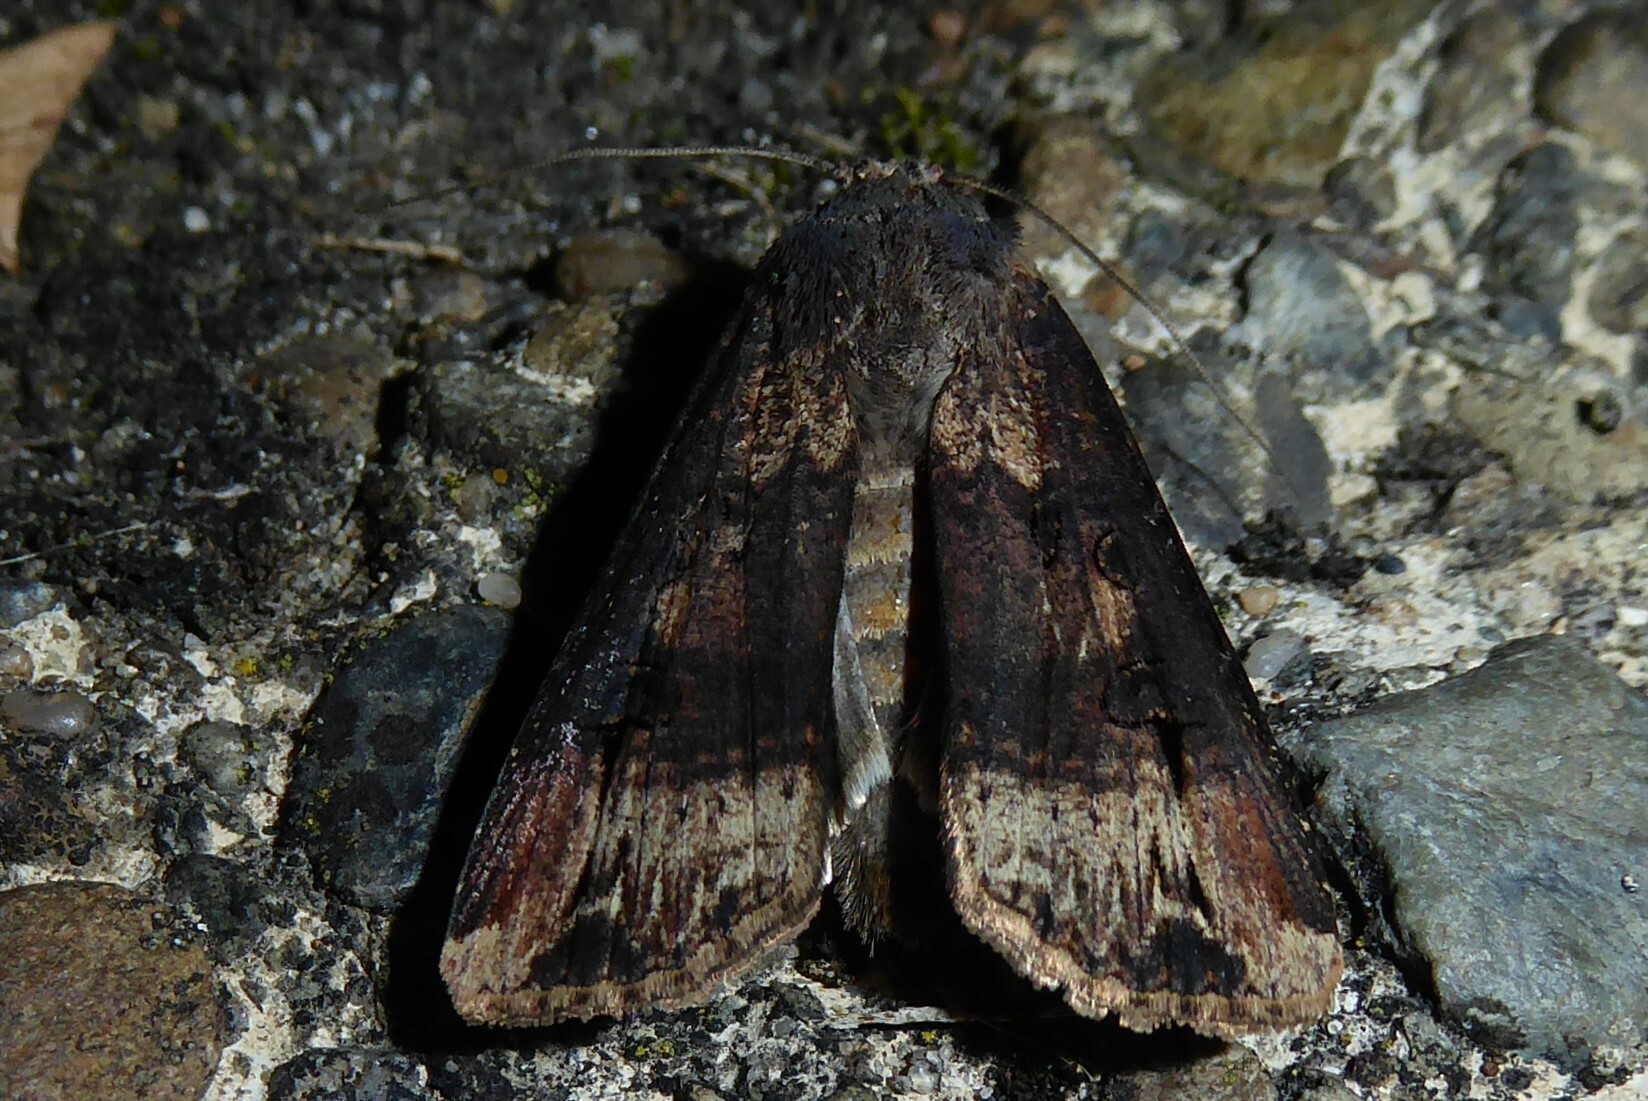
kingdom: Animalia
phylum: Arthropoda
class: Insecta
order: Lepidoptera
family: Noctuidae
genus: Agrotis
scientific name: Agrotis ipsilon
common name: Dark sword-grass
